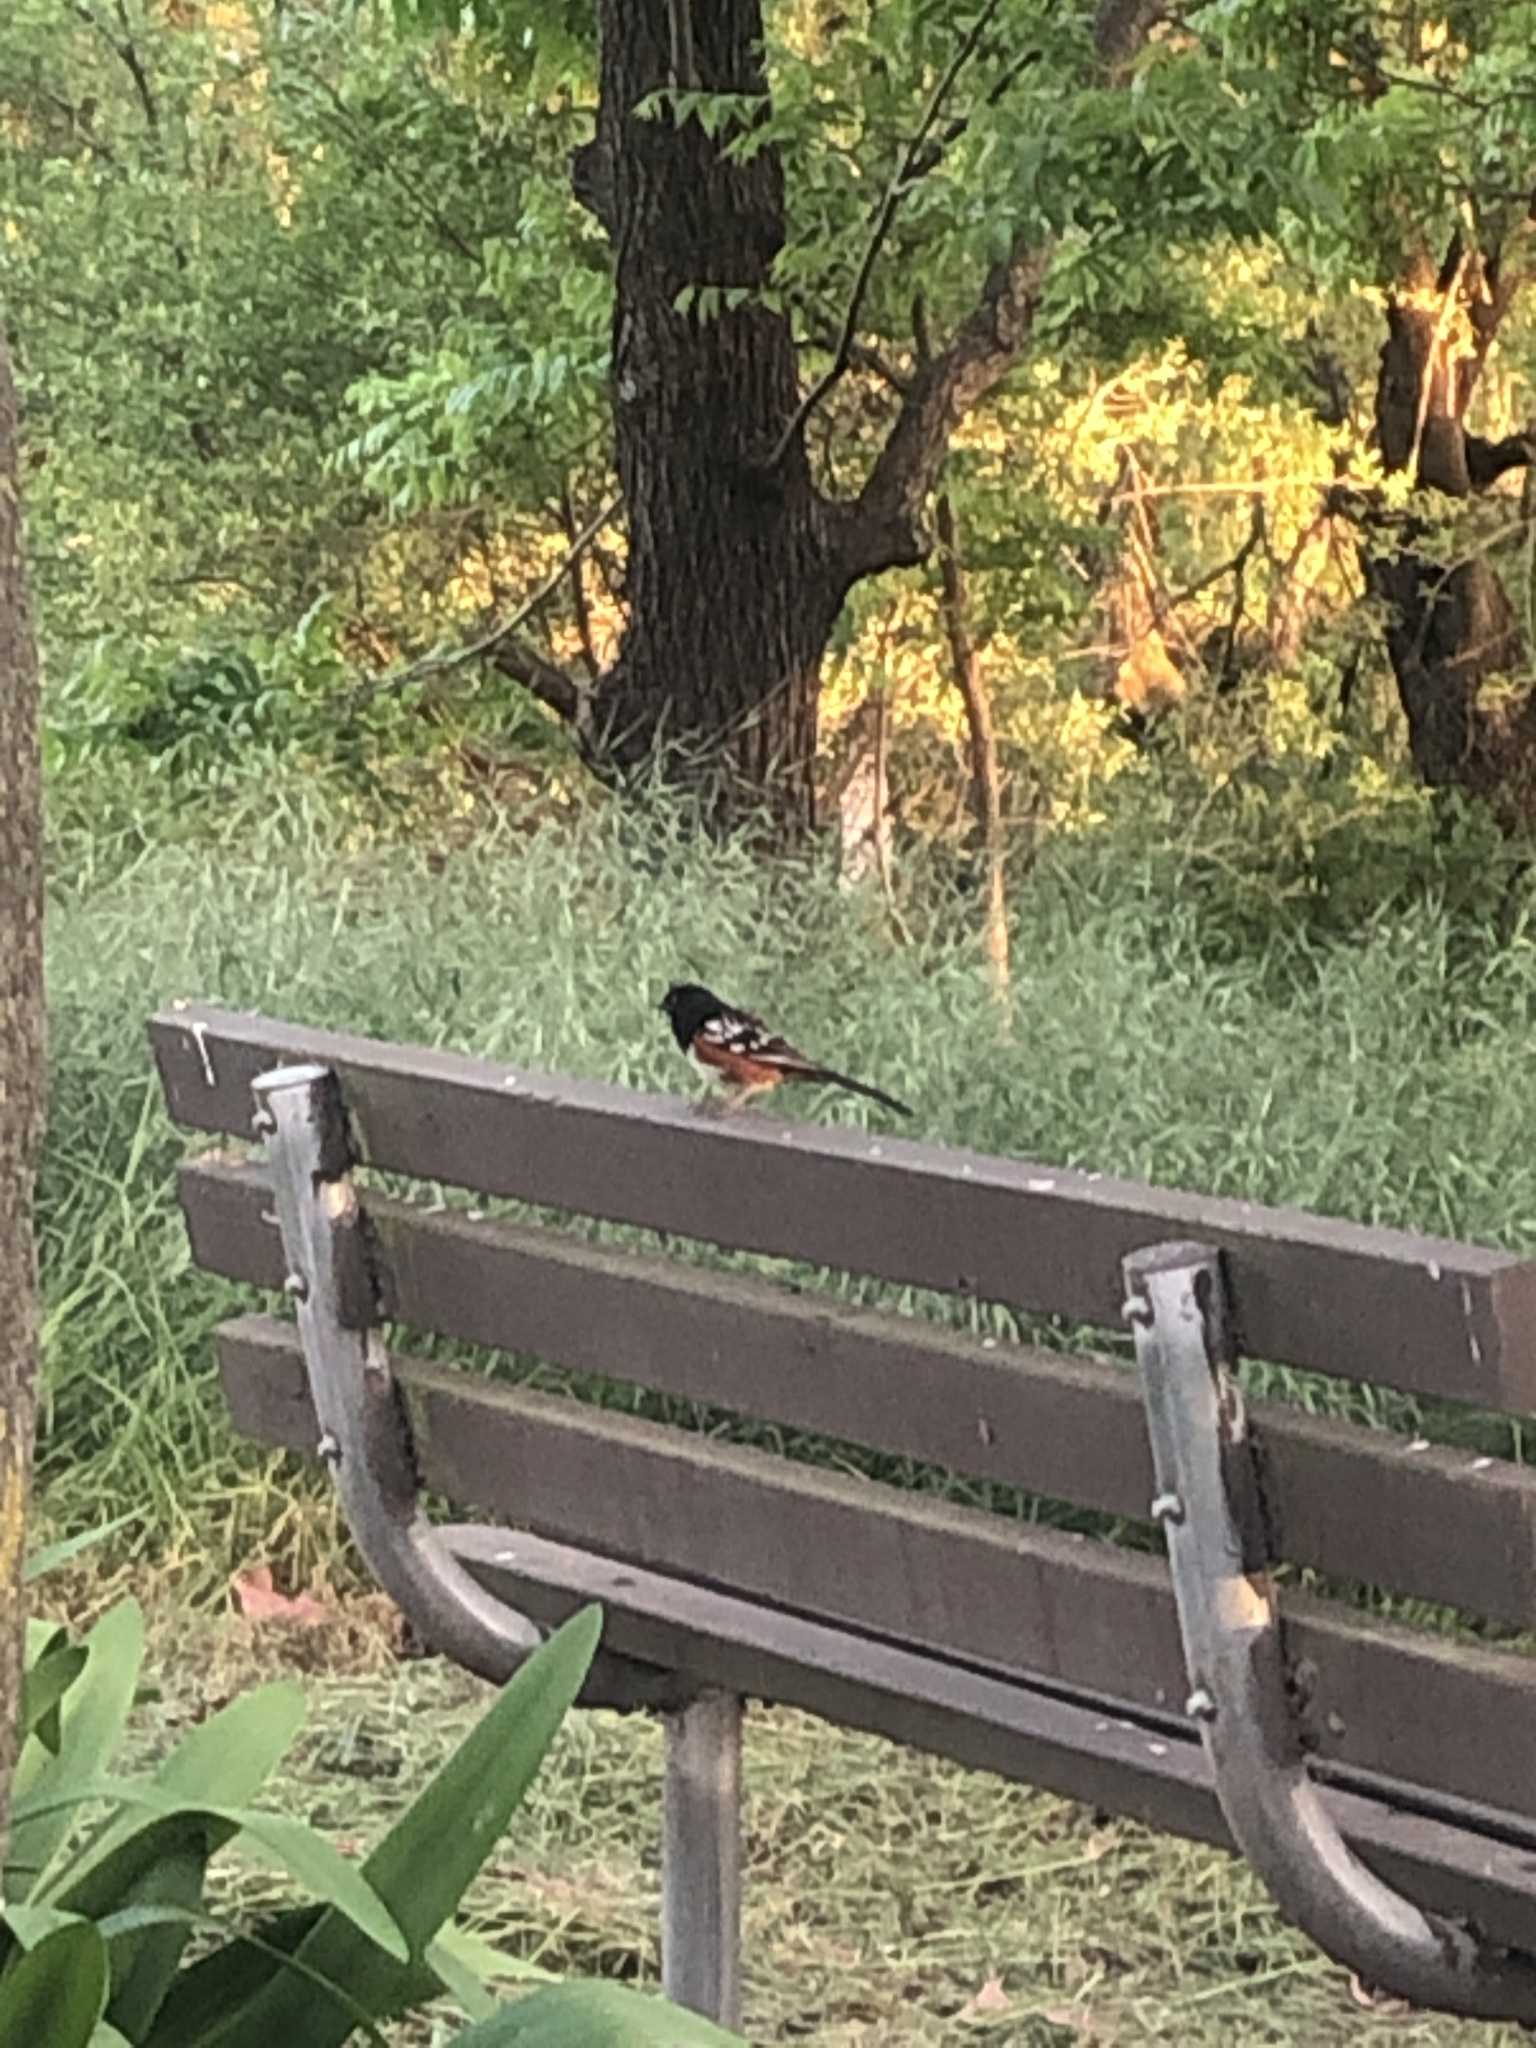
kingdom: Animalia
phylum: Chordata
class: Aves
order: Passeriformes
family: Passerellidae
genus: Pipilo
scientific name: Pipilo maculatus
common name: Spotted towhee
